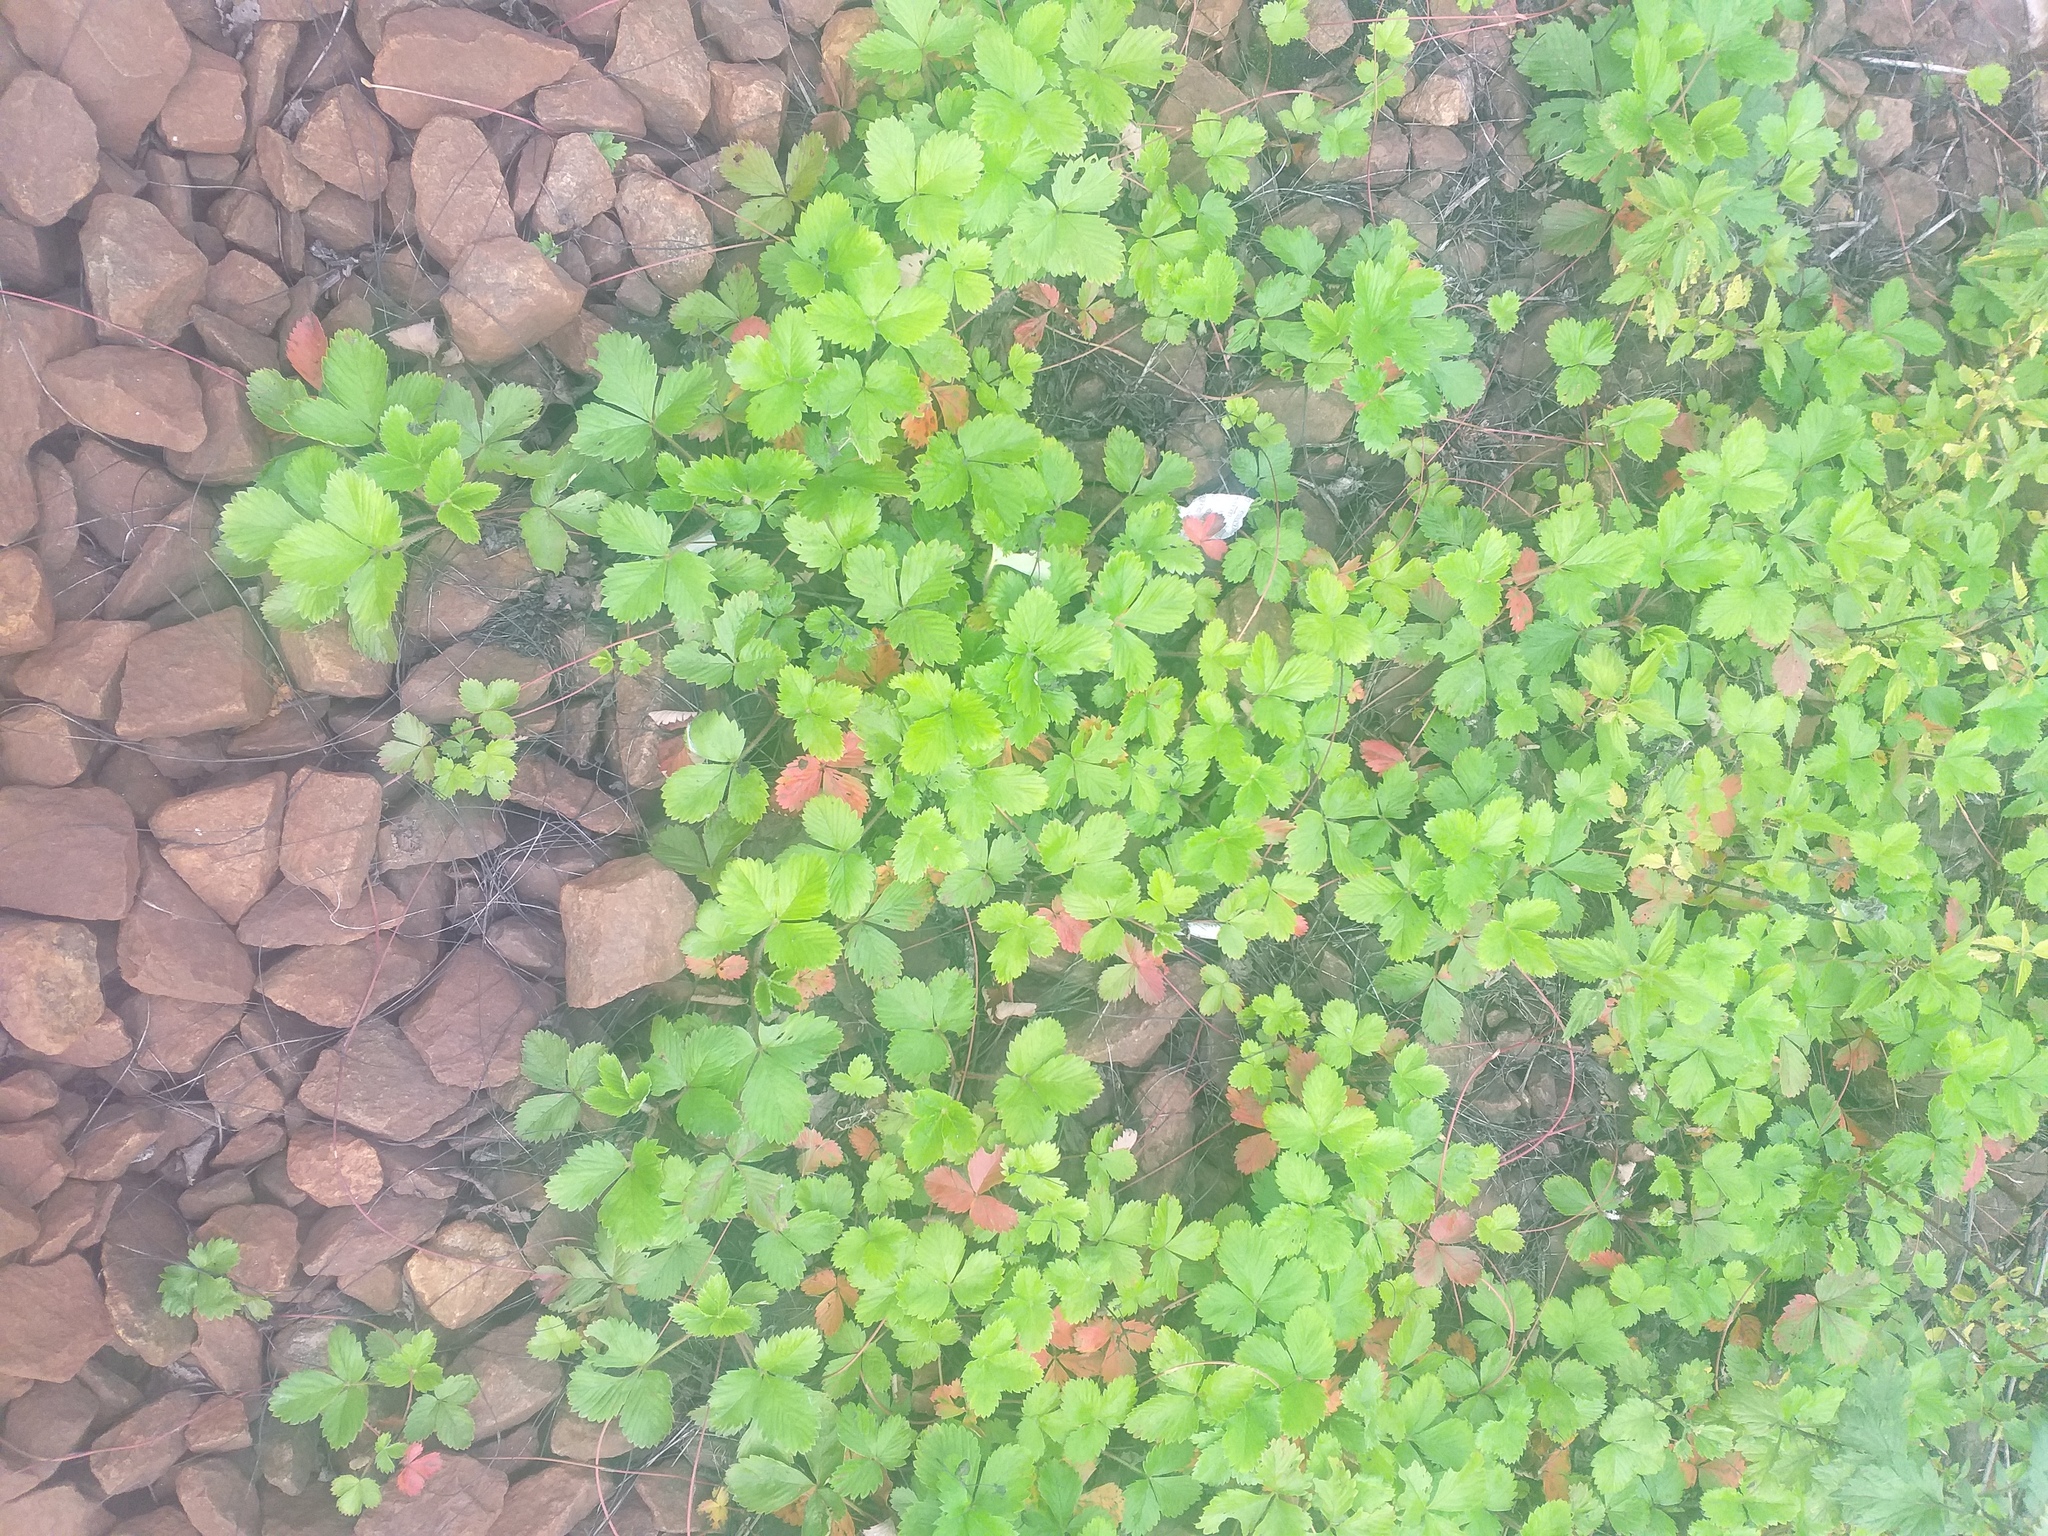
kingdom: Plantae
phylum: Tracheophyta
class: Magnoliopsida
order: Rosales
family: Rosaceae
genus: Fragaria
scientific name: Fragaria vesca
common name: Wild strawberry
